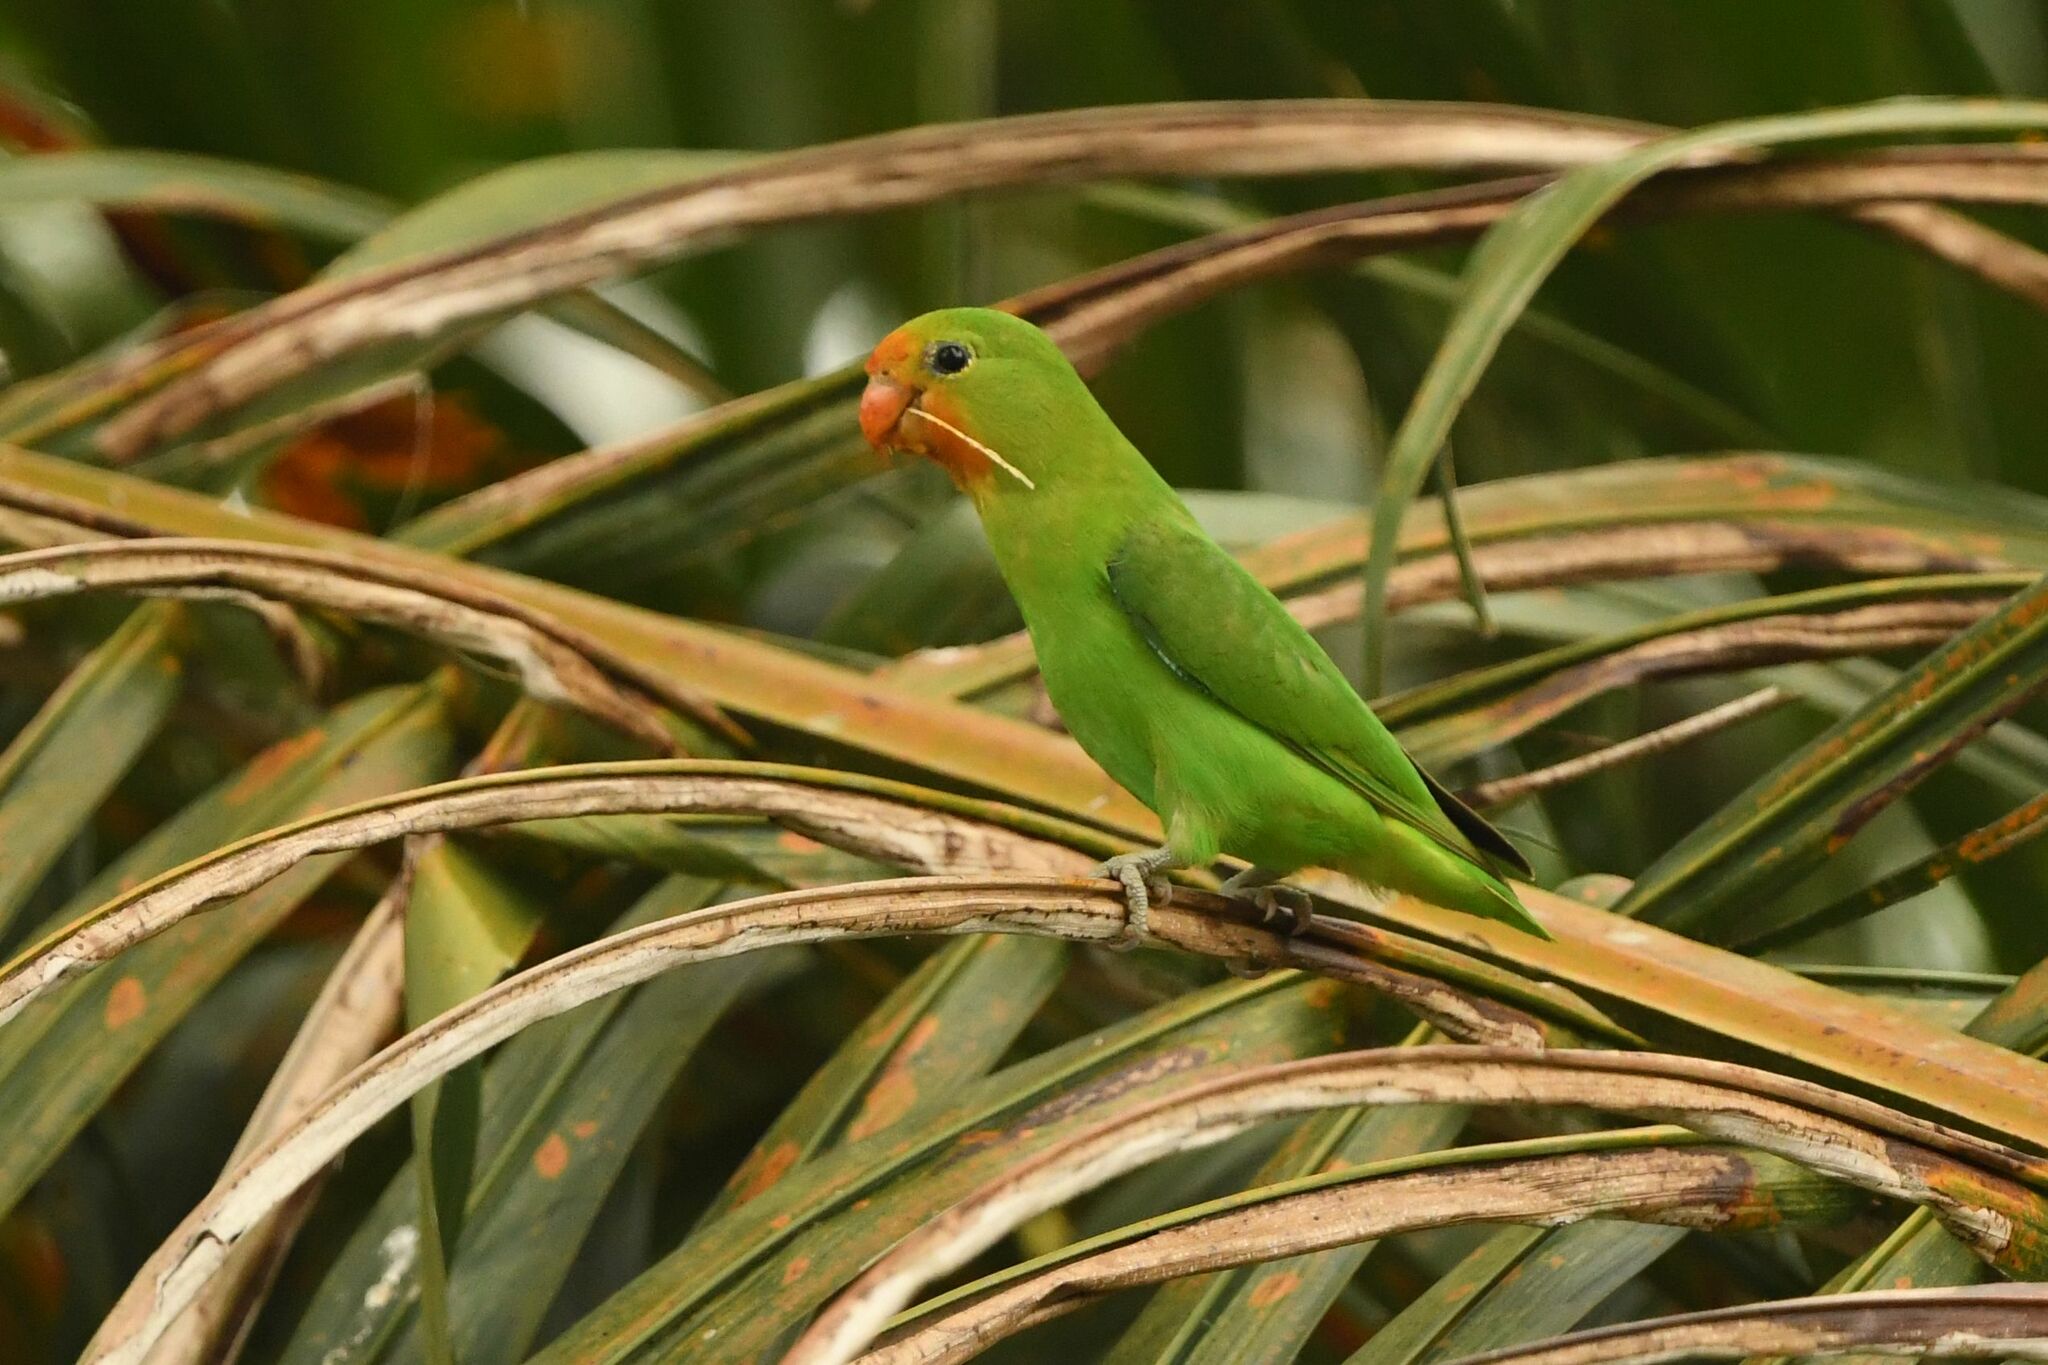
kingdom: Animalia
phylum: Chordata
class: Aves
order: Psittaciformes
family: Psittacidae
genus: Agapornis
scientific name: Agapornis pullarius
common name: Red-headed lovebird
